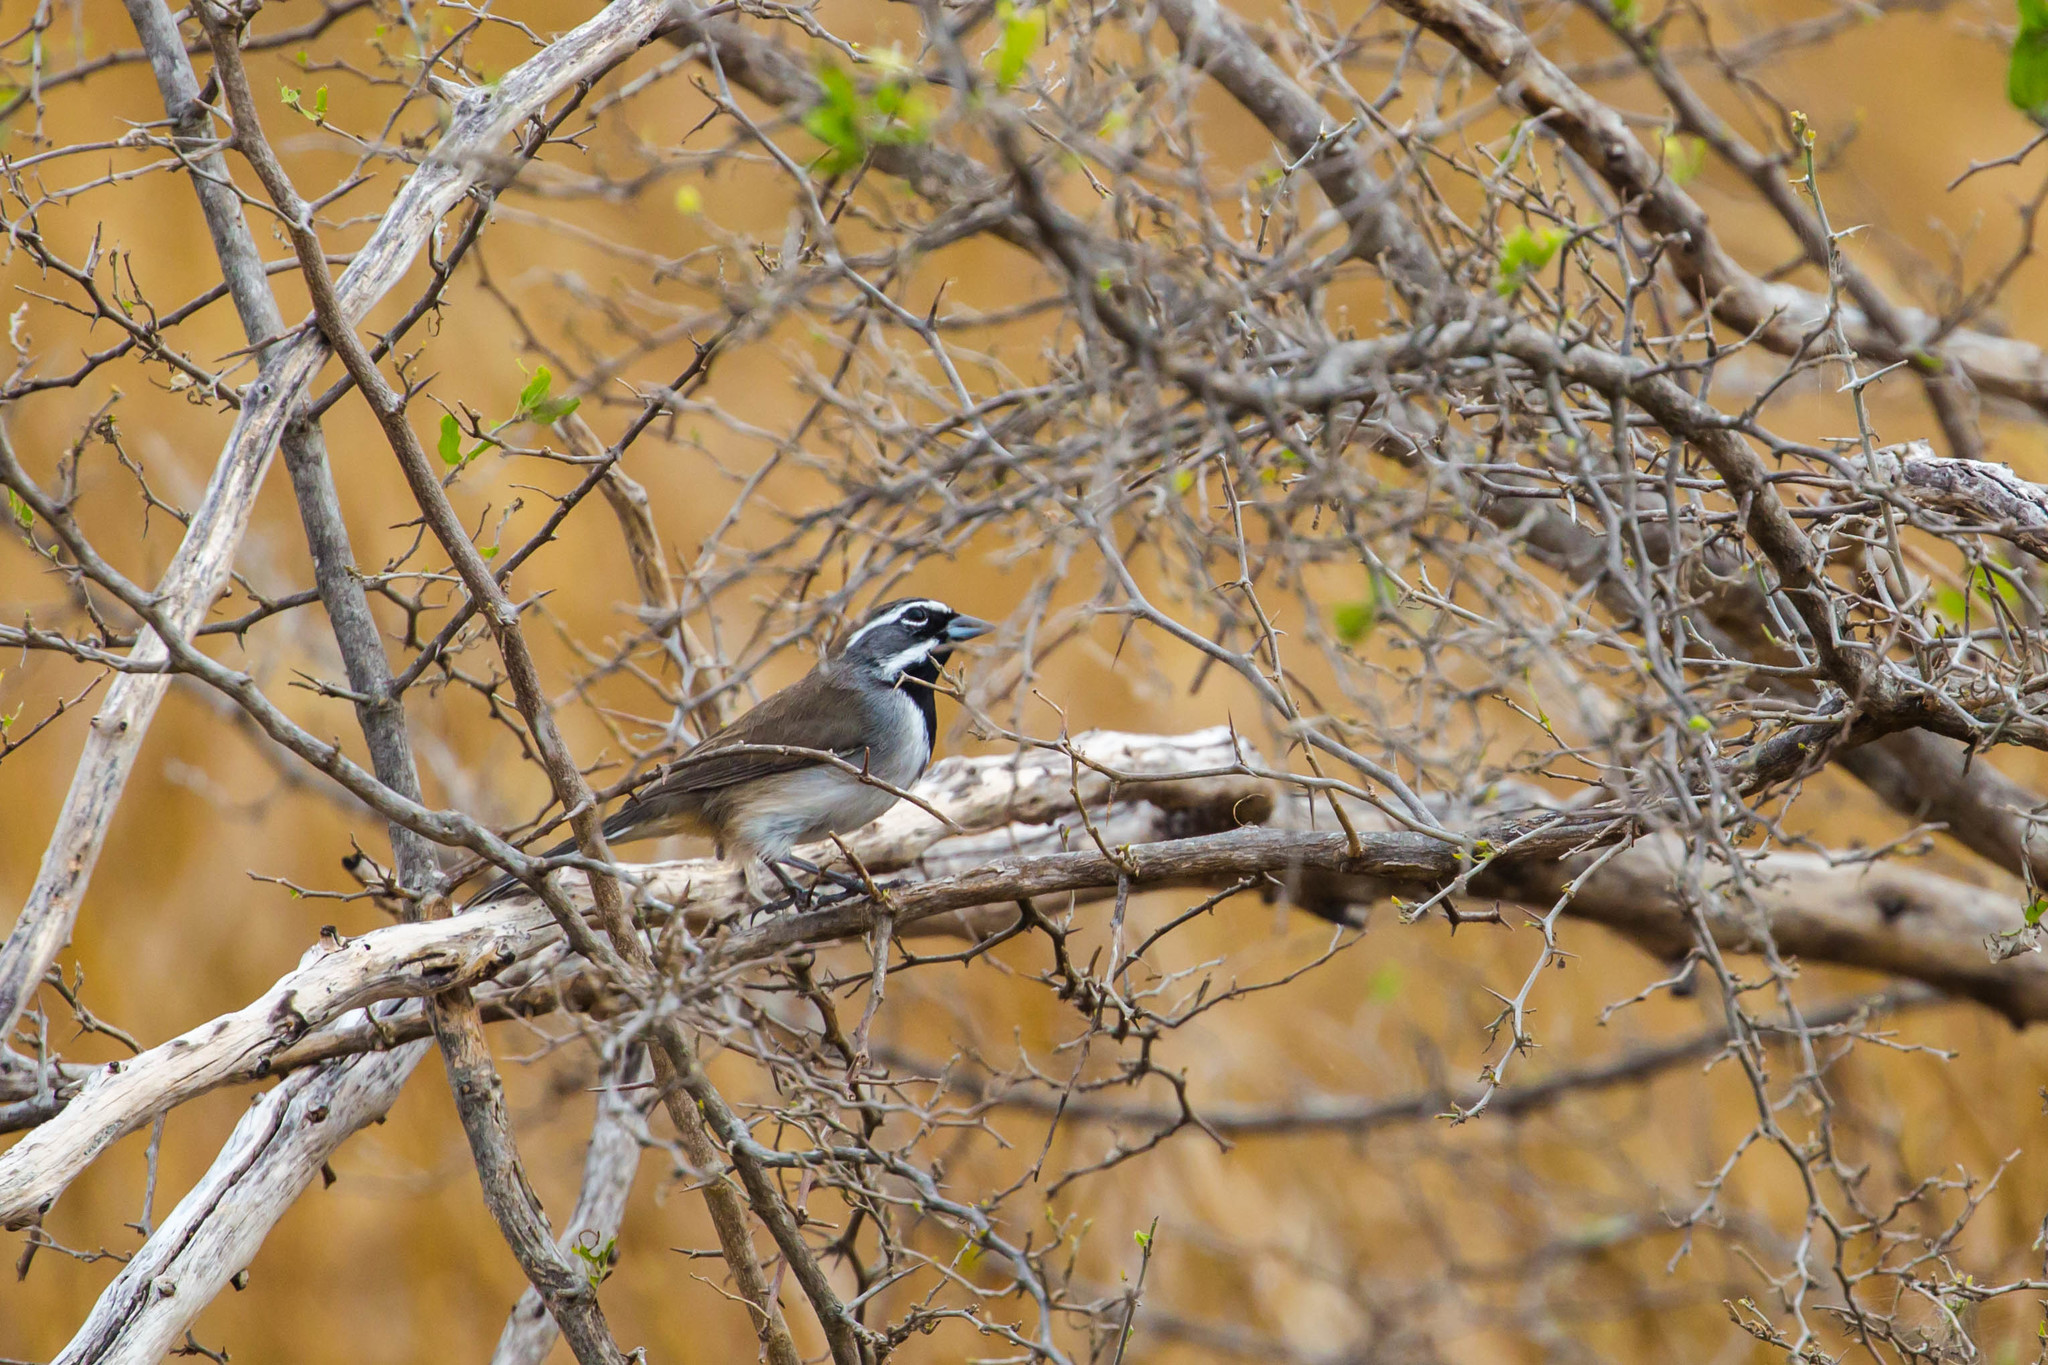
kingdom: Animalia
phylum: Chordata
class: Aves
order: Passeriformes
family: Passerellidae
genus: Amphispiza
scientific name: Amphispiza bilineata
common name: Black-throated sparrow
